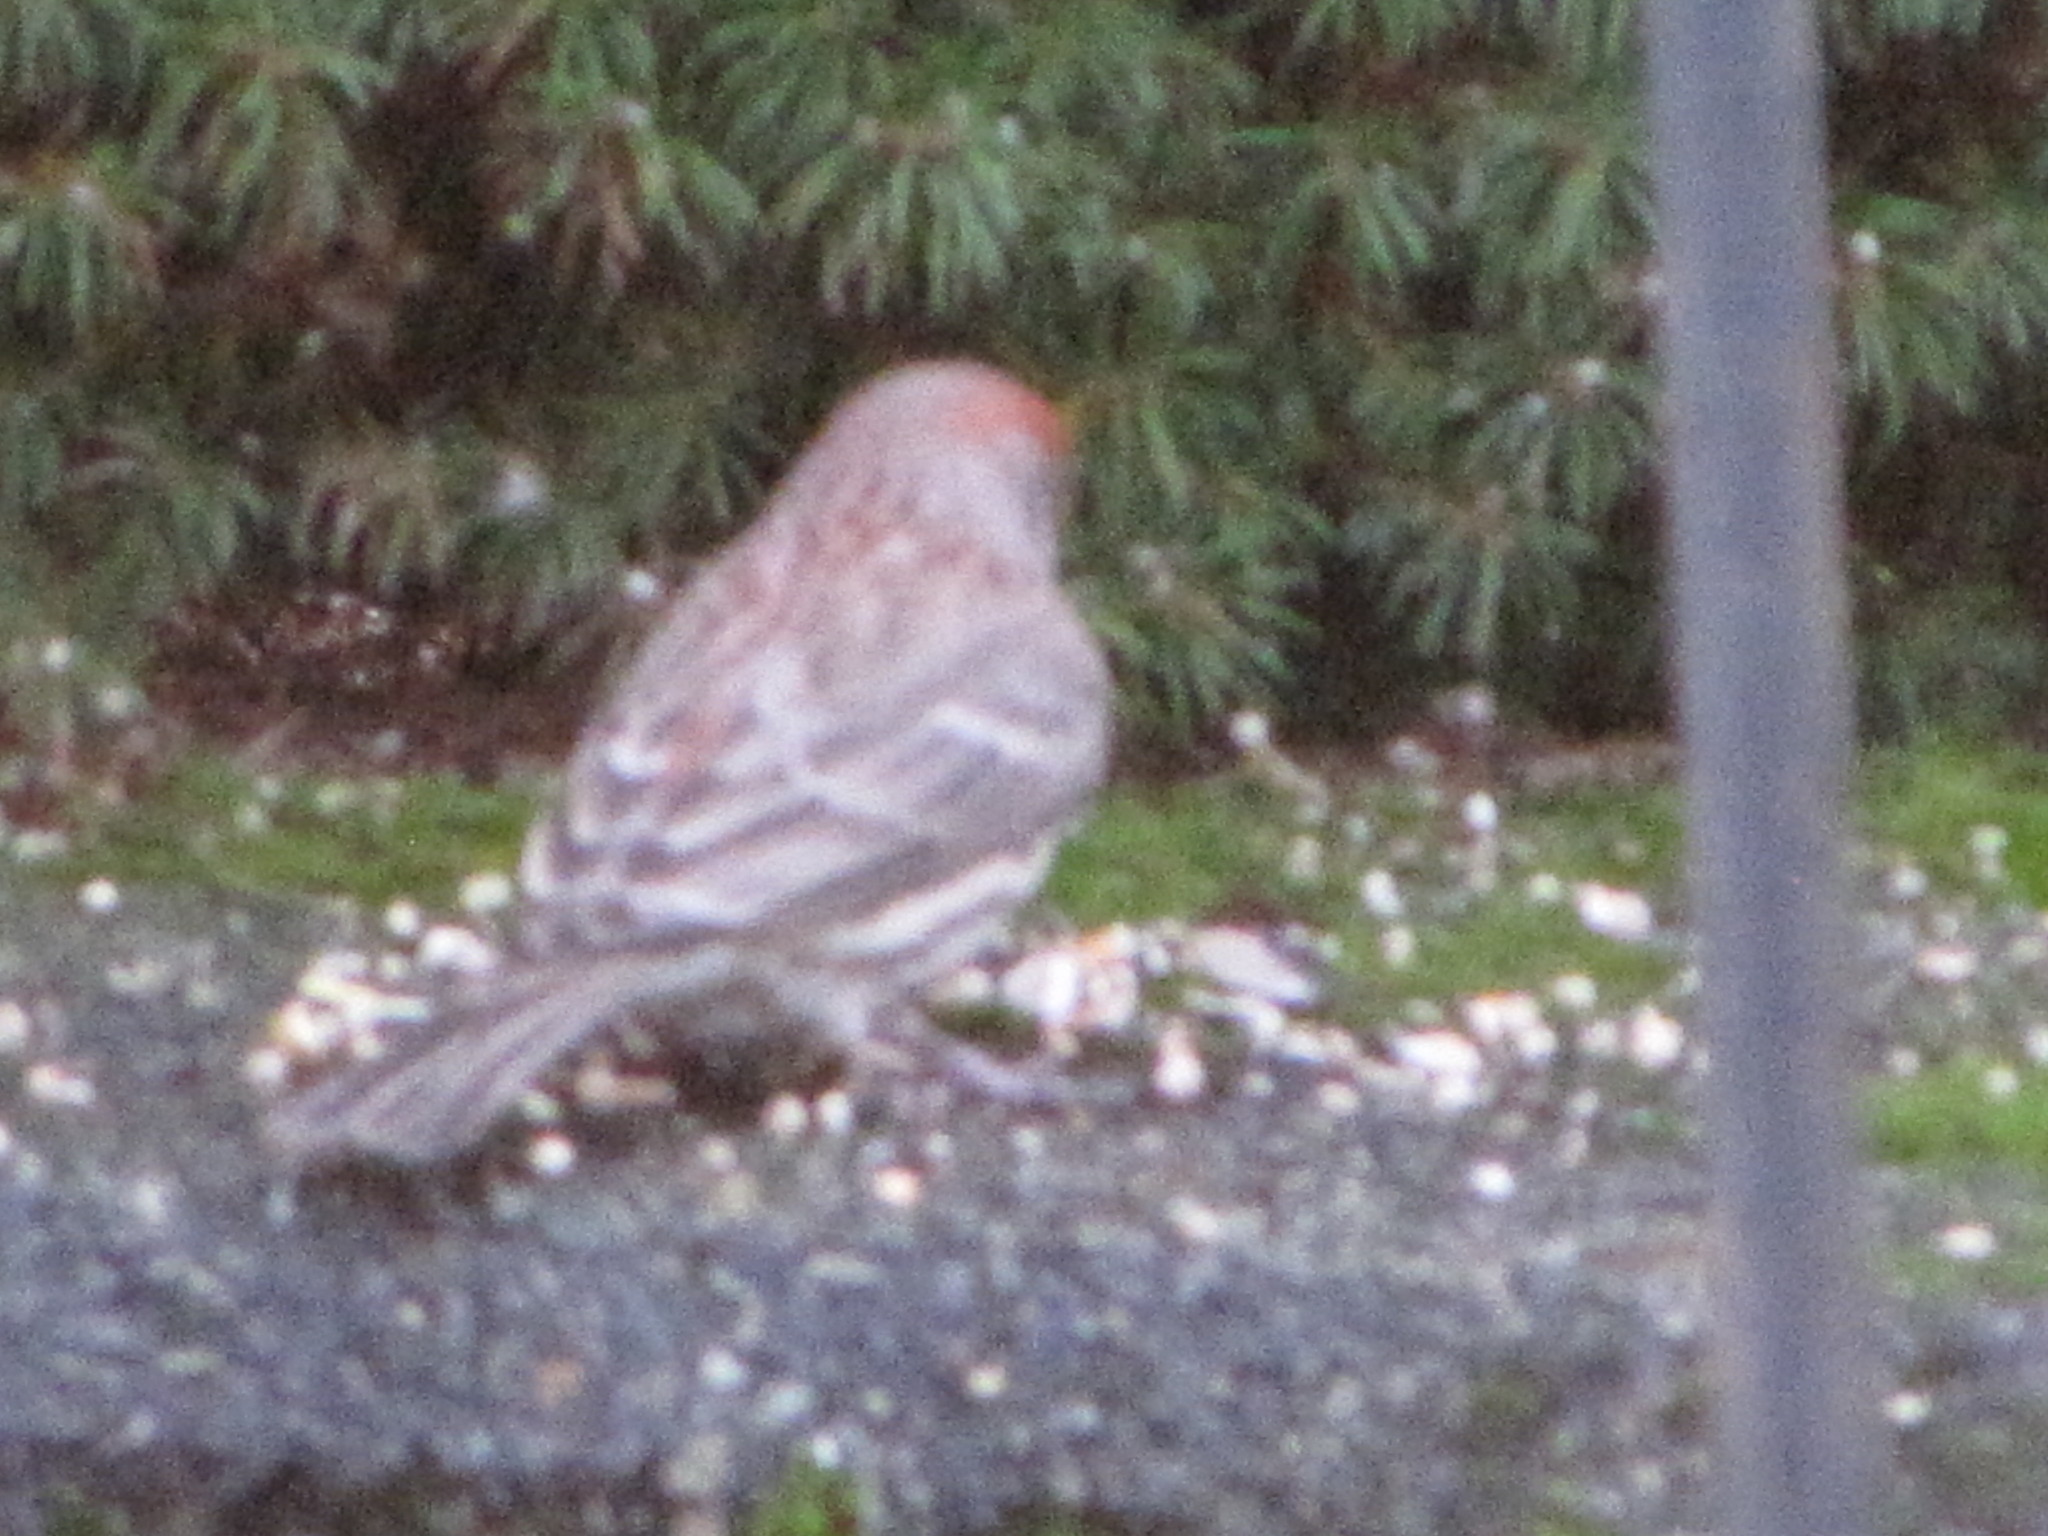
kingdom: Animalia
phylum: Chordata
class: Aves
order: Passeriformes
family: Fringillidae
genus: Haemorhous
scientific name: Haemorhous mexicanus
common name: House finch
